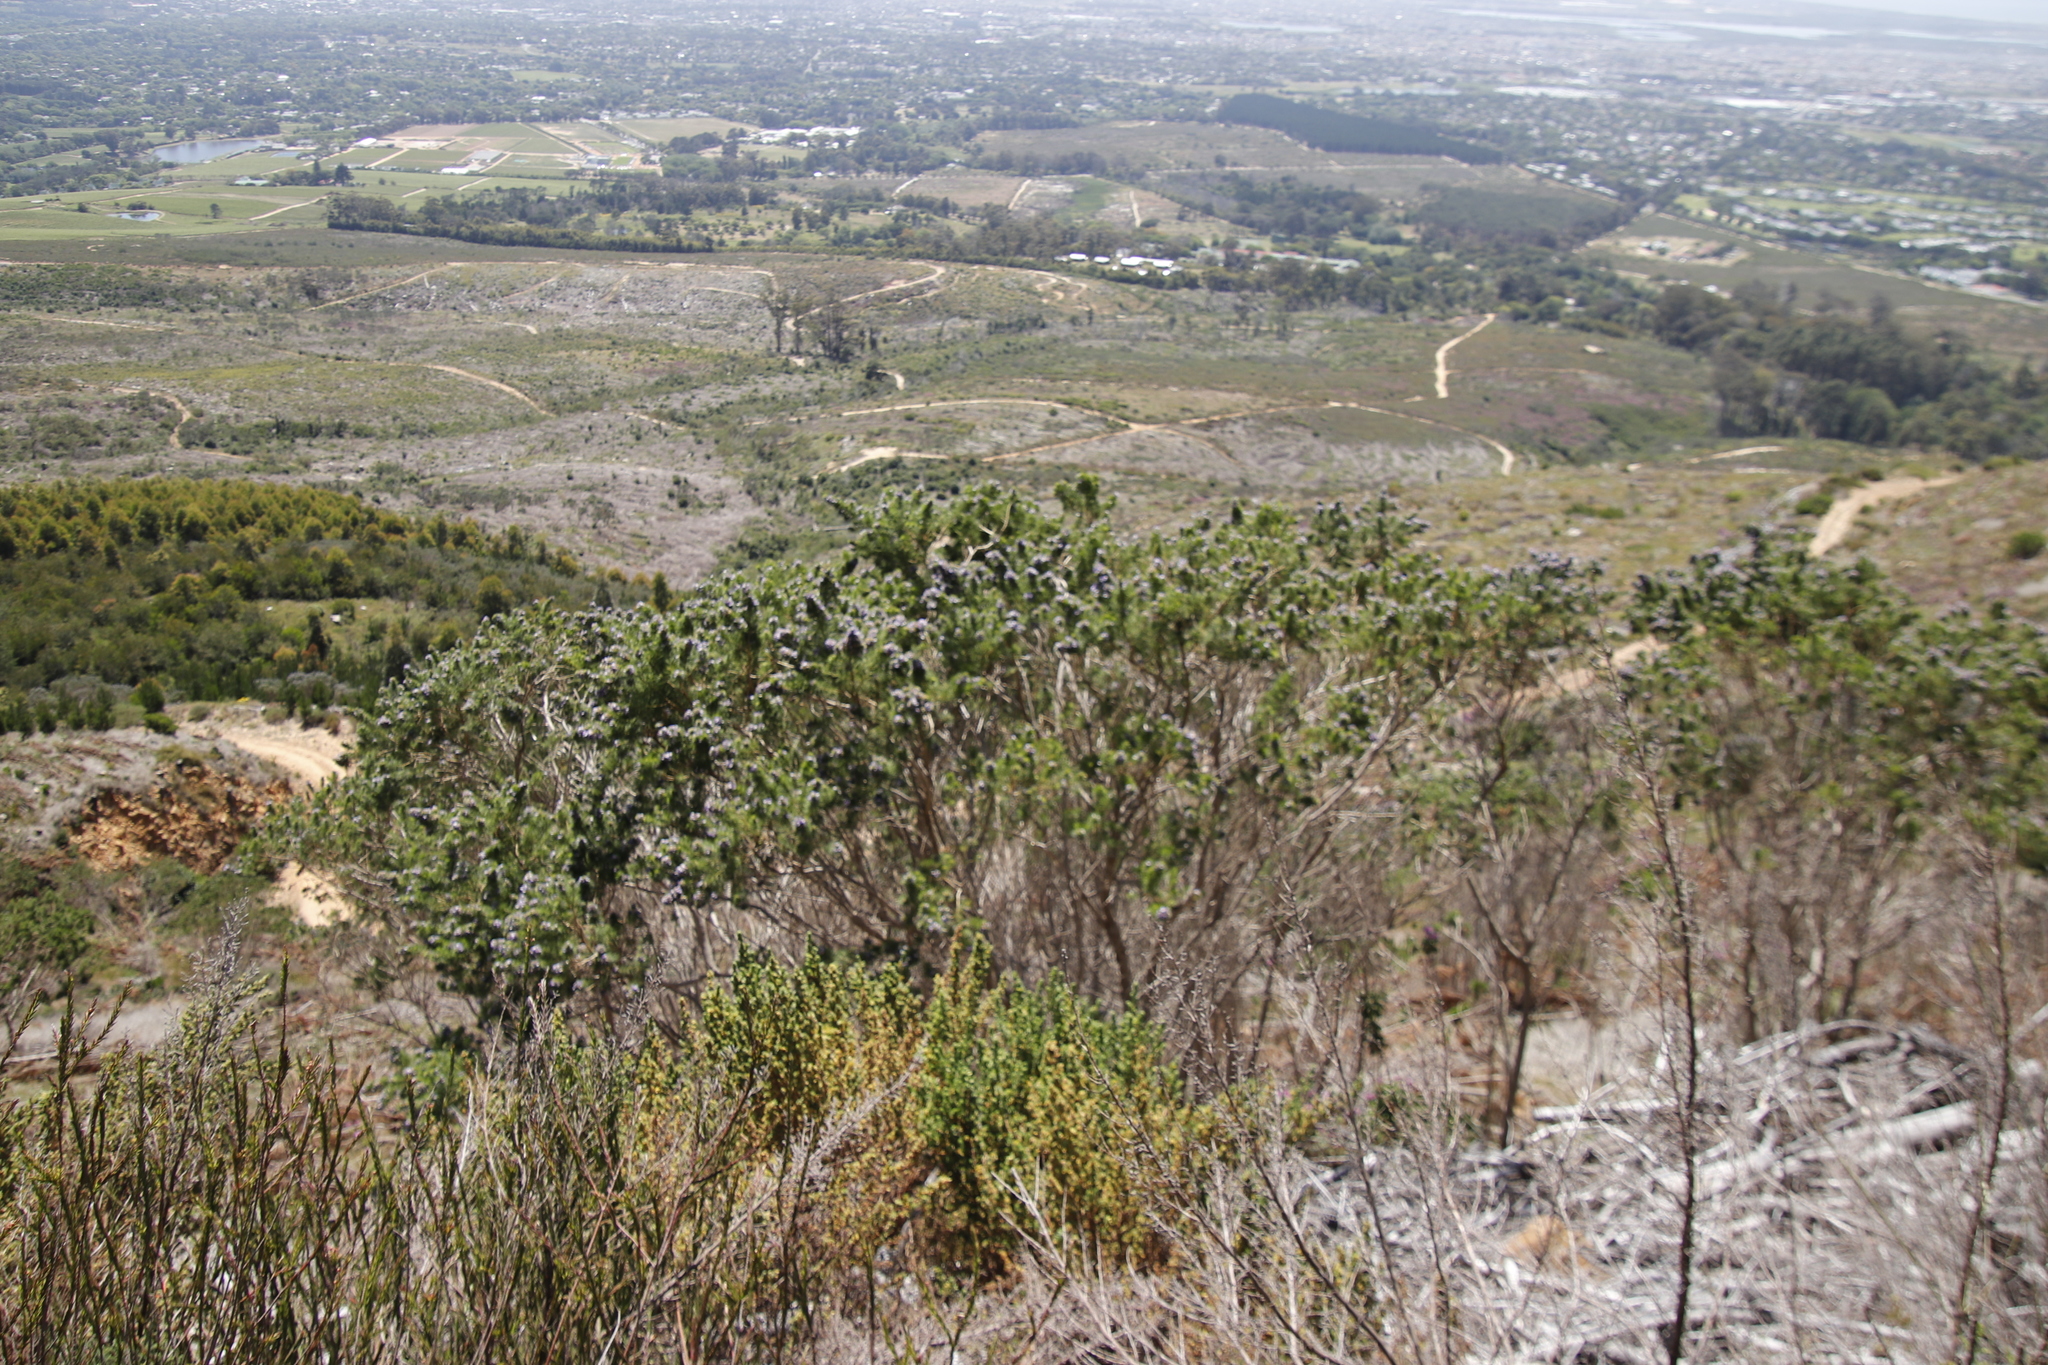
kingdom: Plantae
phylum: Tracheophyta
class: Magnoliopsida
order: Fabales
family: Fabaceae
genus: Psoralea
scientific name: Psoralea pinnata
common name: African scurfpea
